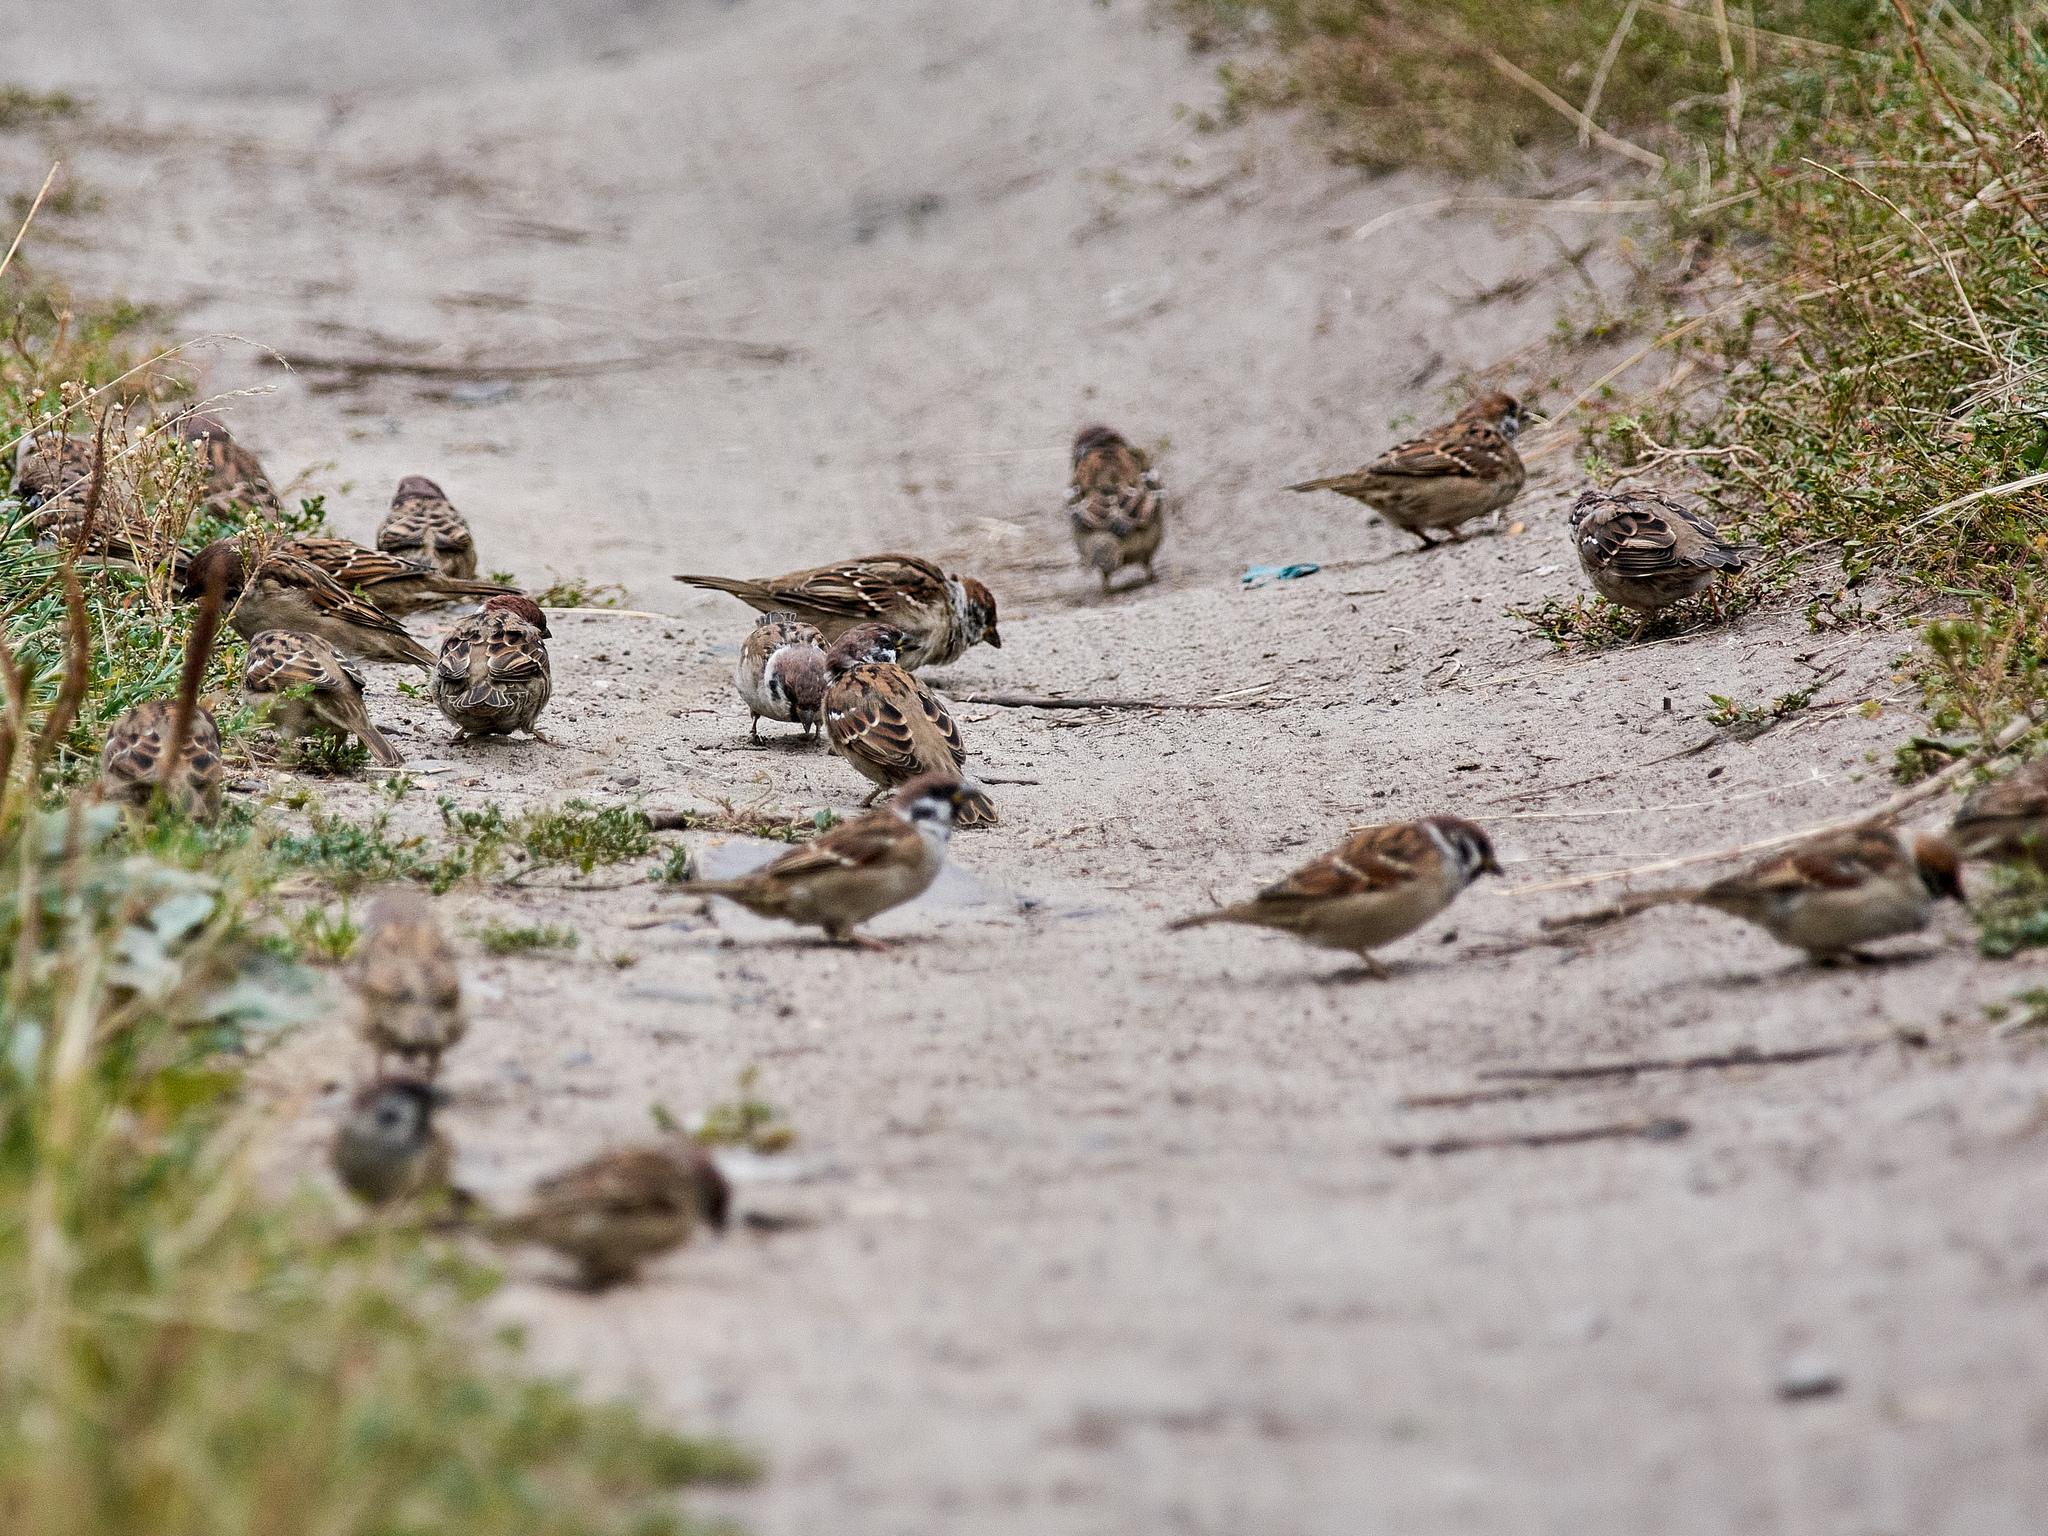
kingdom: Animalia
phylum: Chordata
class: Aves
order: Passeriformes
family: Passeridae
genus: Passer
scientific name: Passer montanus
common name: Eurasian tree sparrow
